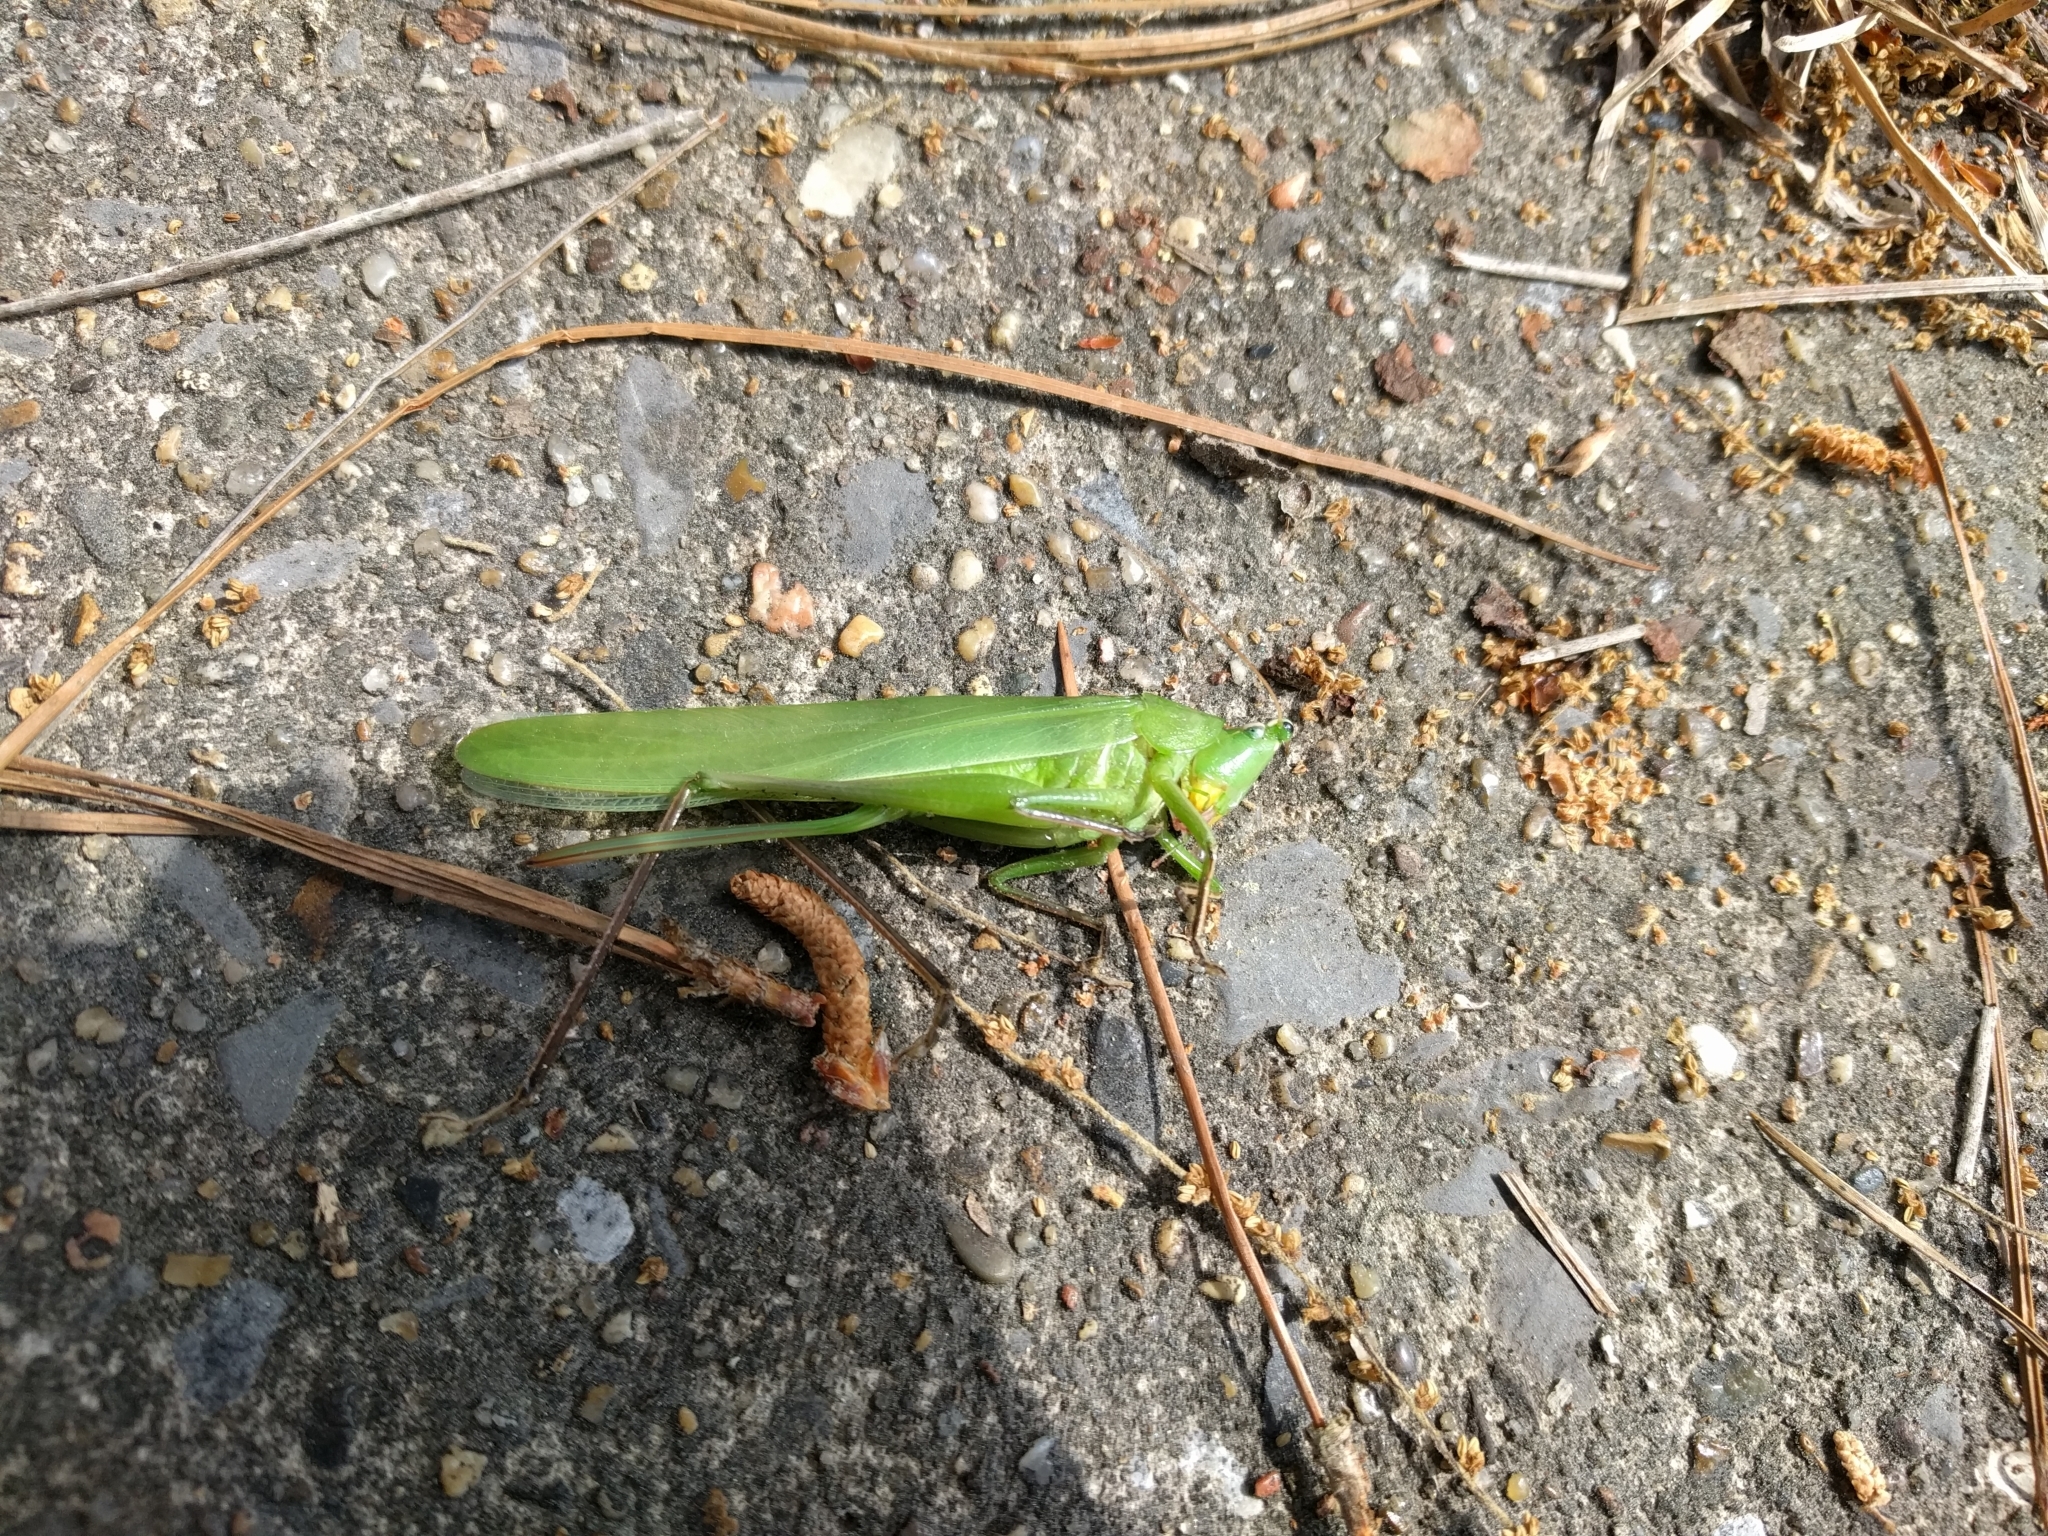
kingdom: Animalia
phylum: Arthropoda
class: Insecta
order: Orthoptera
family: Tettigoniidae
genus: Neoconocephalus
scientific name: Neoconocephalus triops
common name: Broad-tipped conehead
